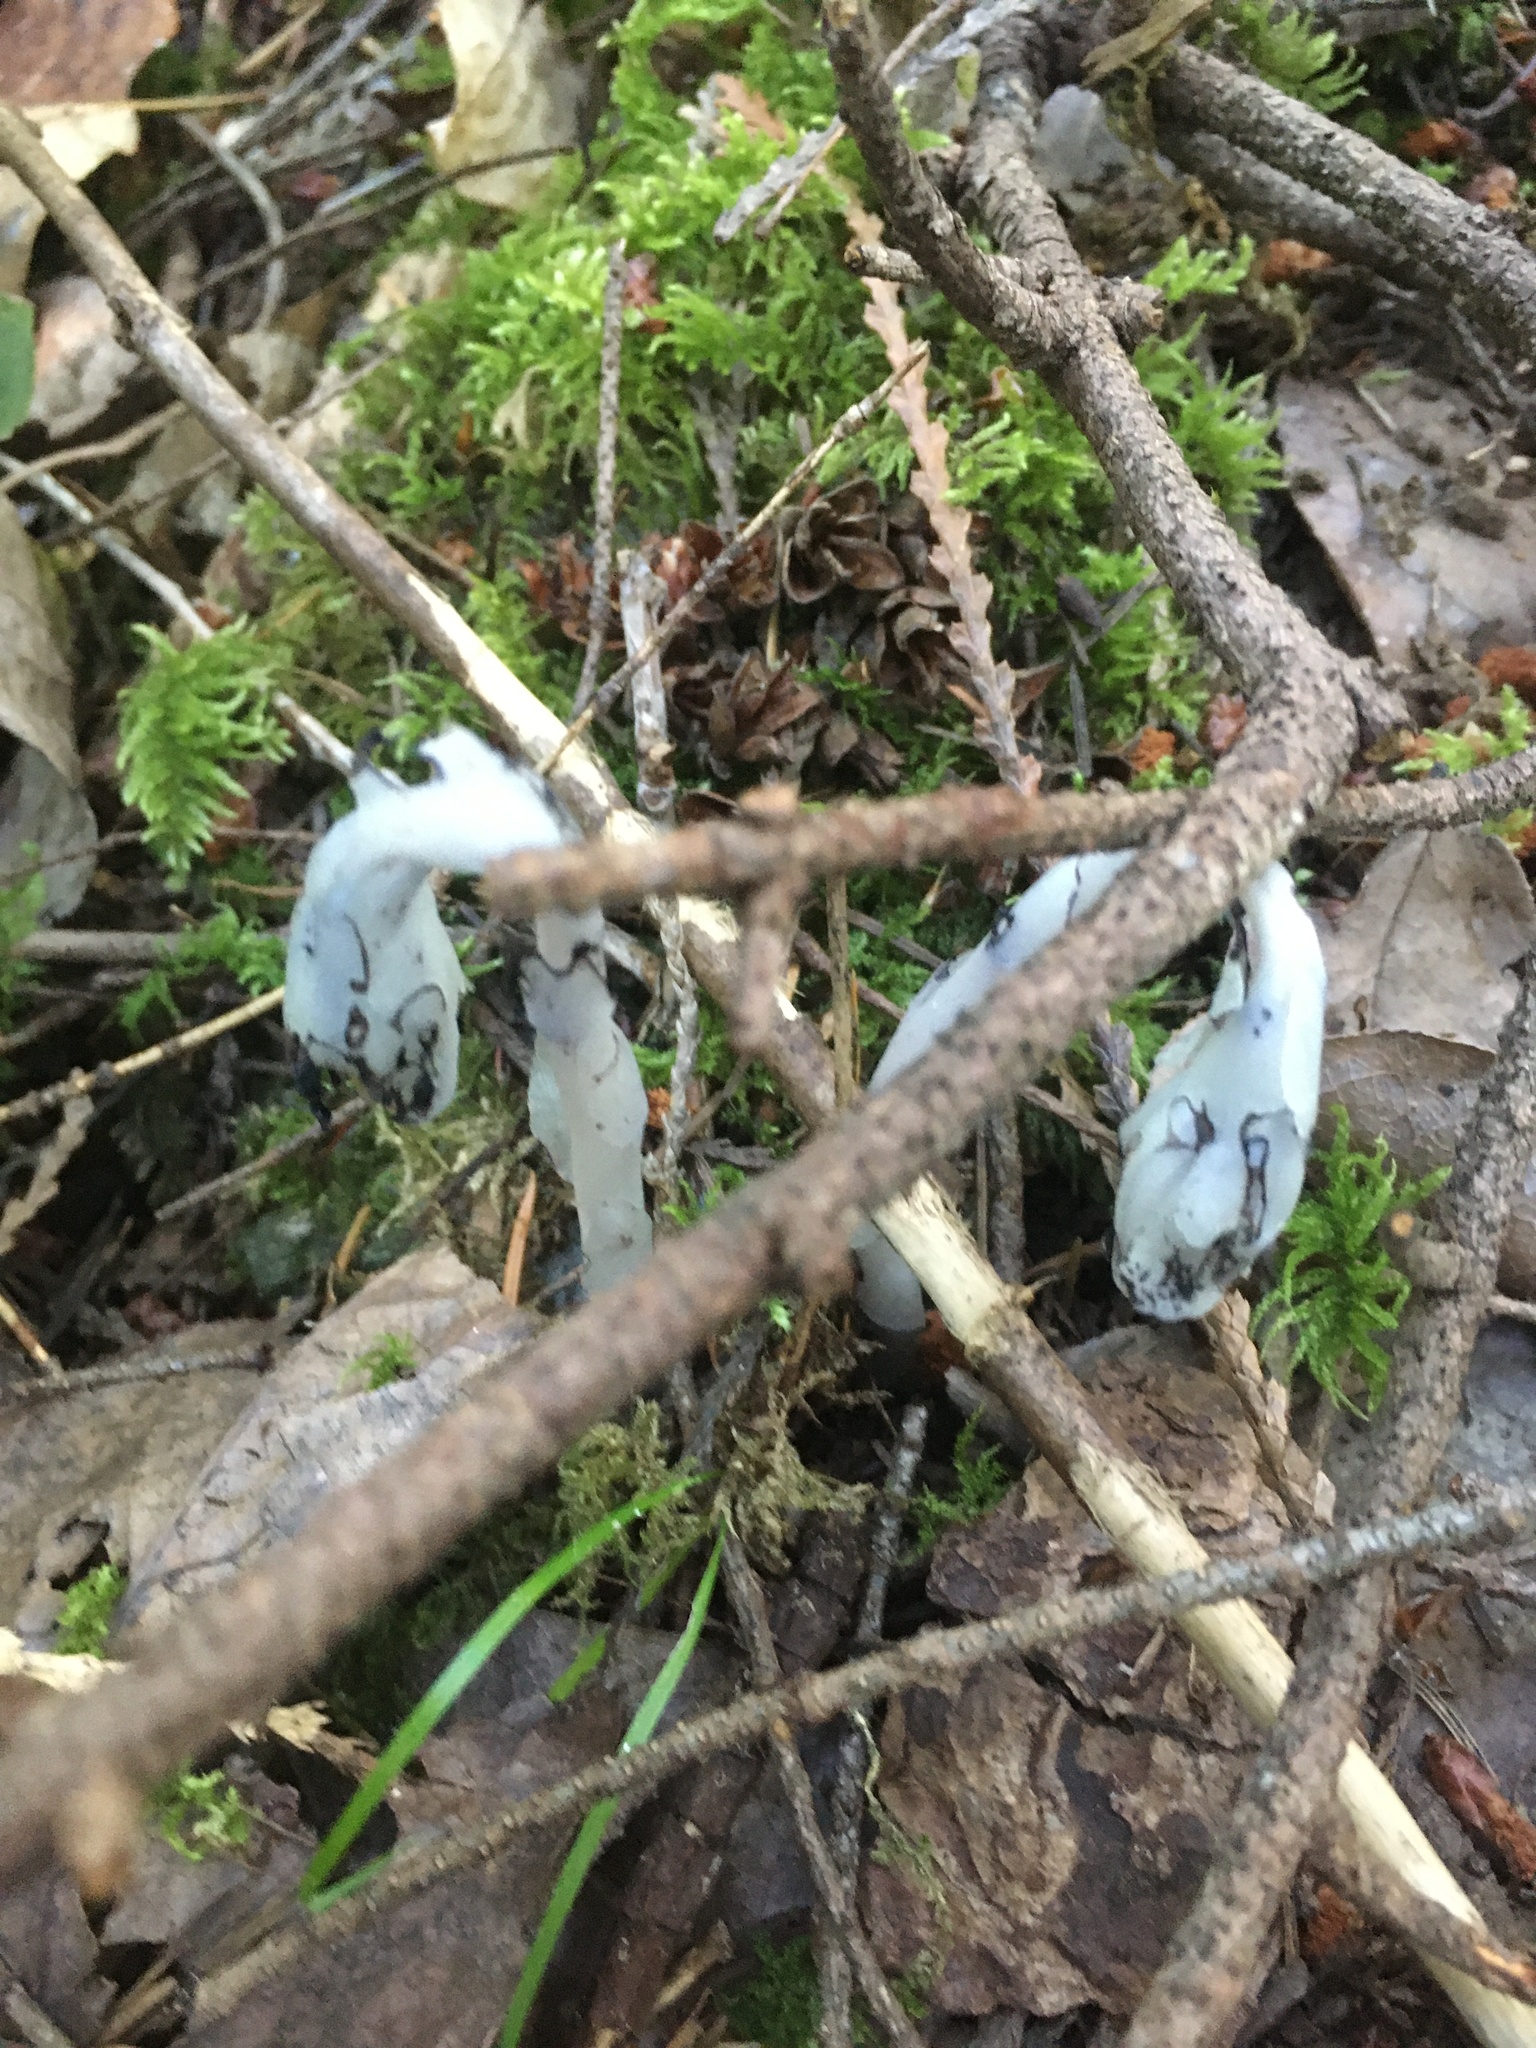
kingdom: Plantae
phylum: Tracheophyta
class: Magnoliopsida
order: Ericales
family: Ericaceae
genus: Monotropa
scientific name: Monotropa uniflora
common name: Convulsion root
